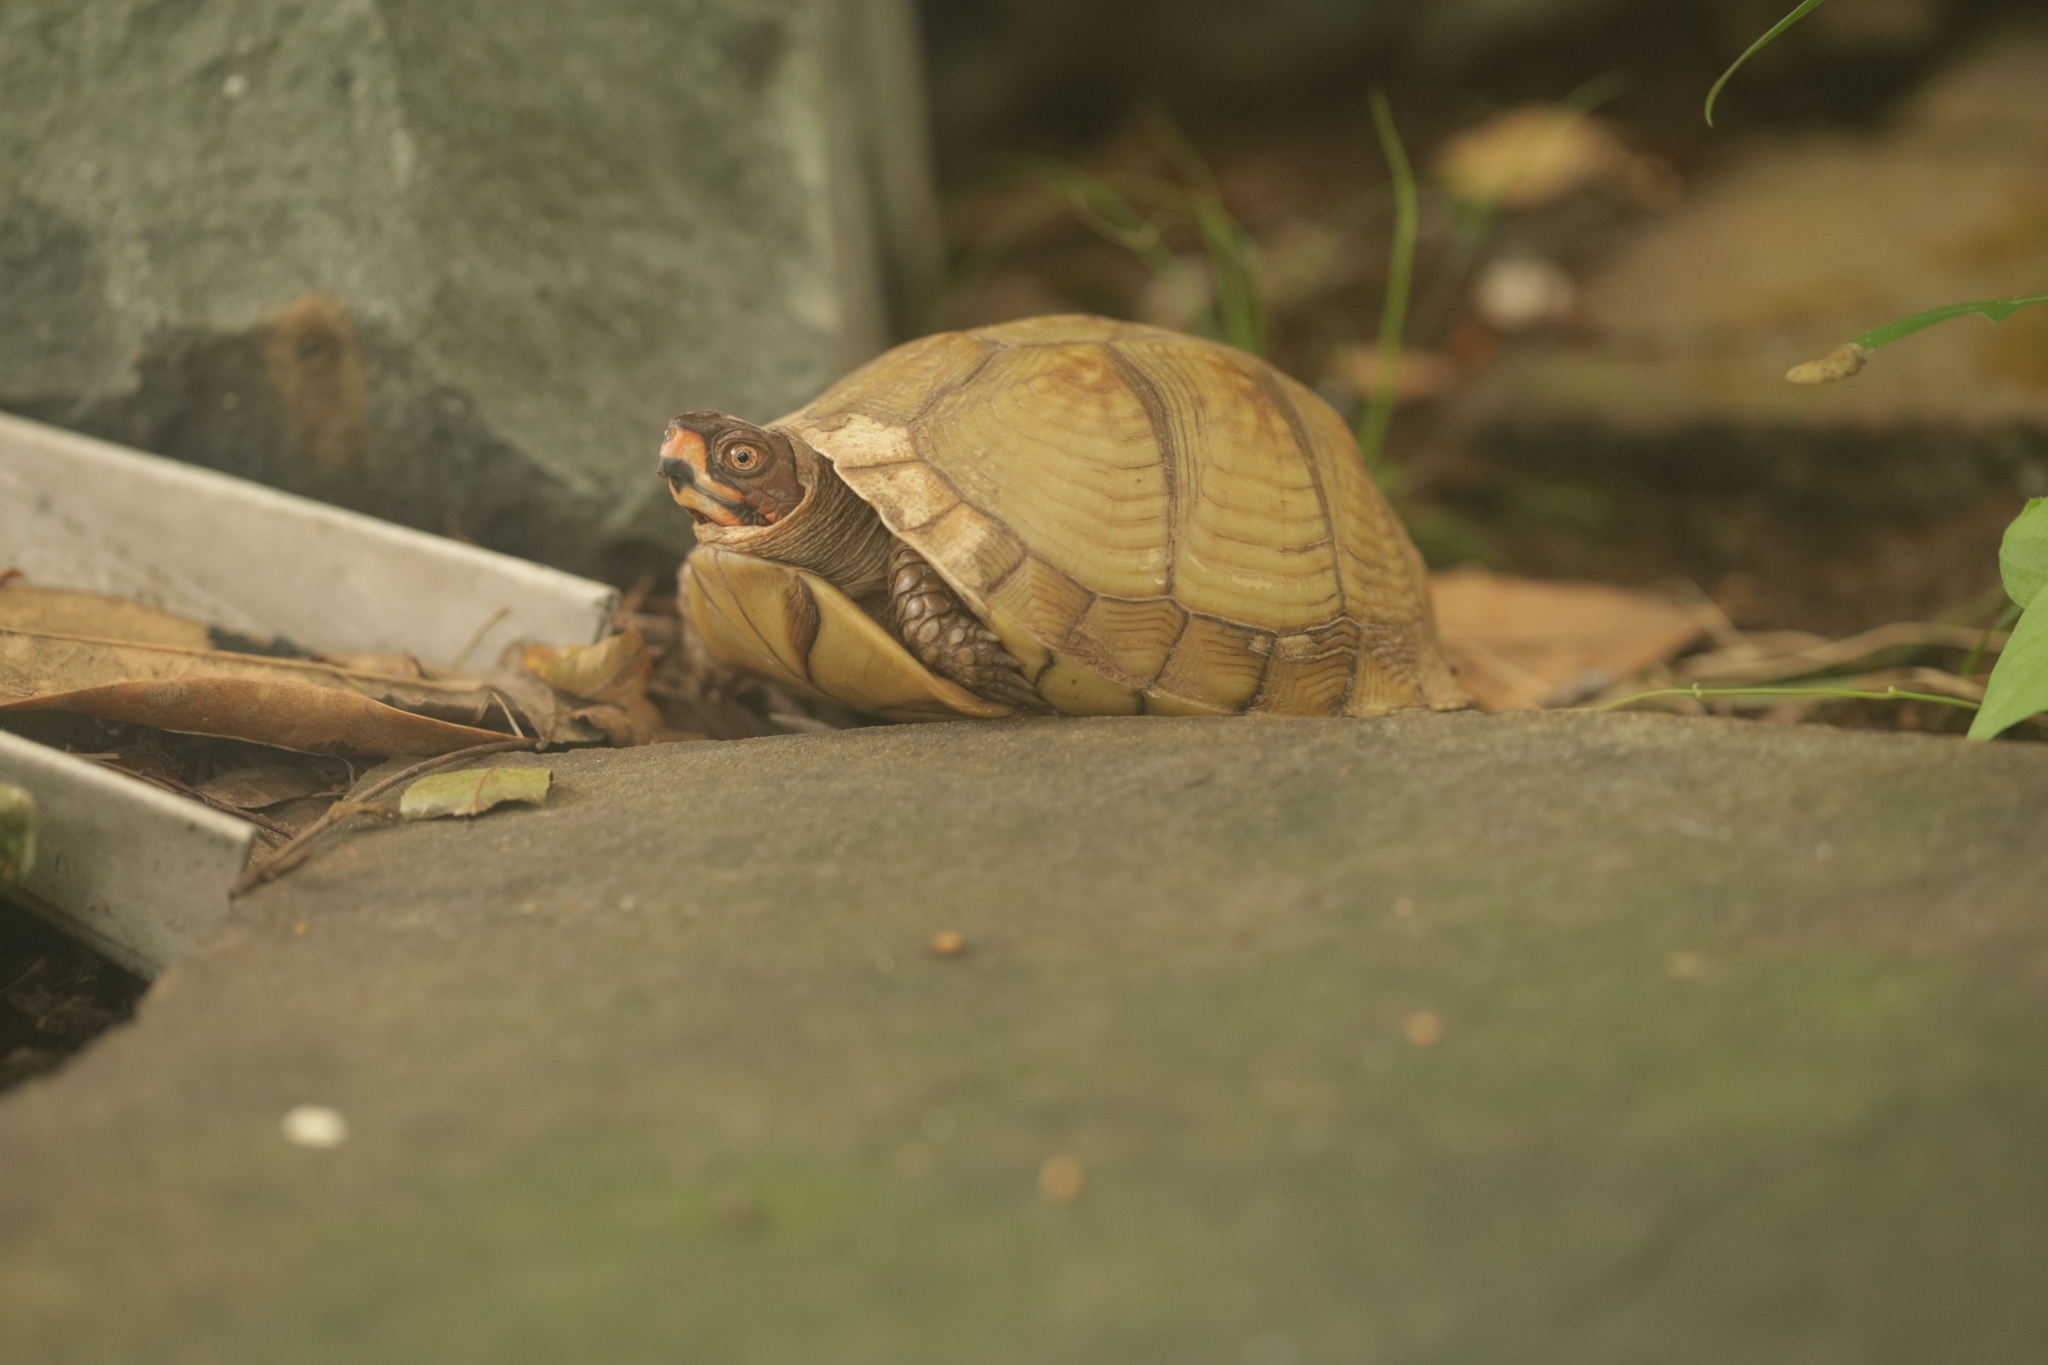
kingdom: Animalia
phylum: Chordata
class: Testudines
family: Emydidae
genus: Terrapene
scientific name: Terrapene carolina
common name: Common box turtle
